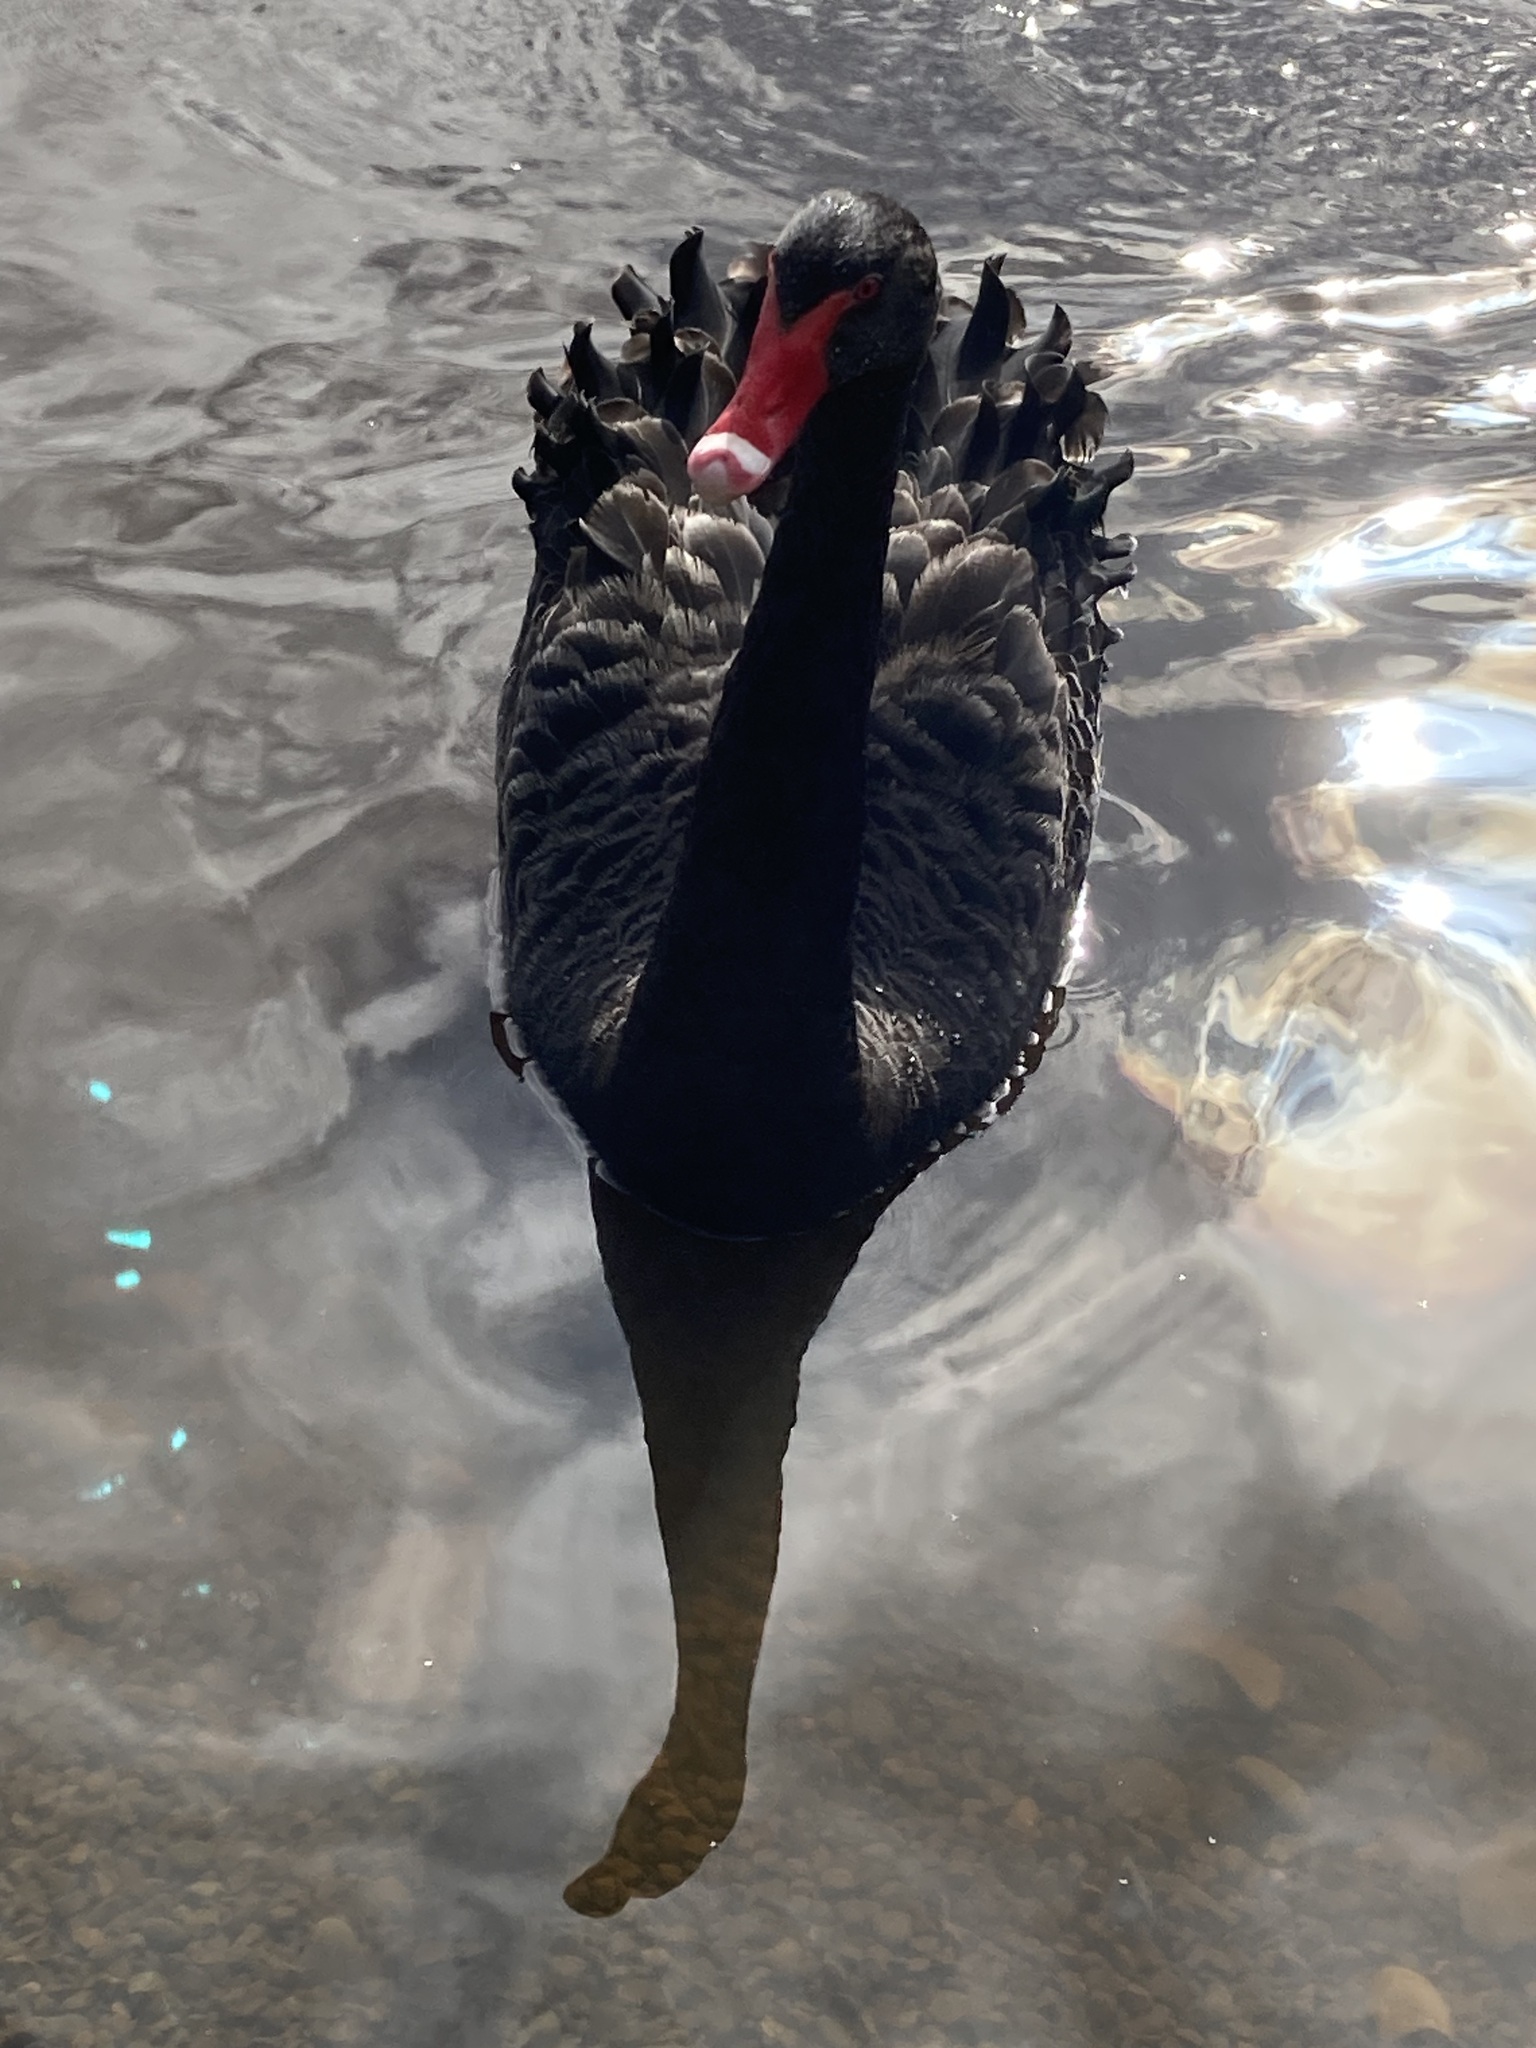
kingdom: Animalia
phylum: Chordata
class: Aves
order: Anseriformes
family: Anatidae
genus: Cygnus
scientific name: Cygnus atratus
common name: Black swan
